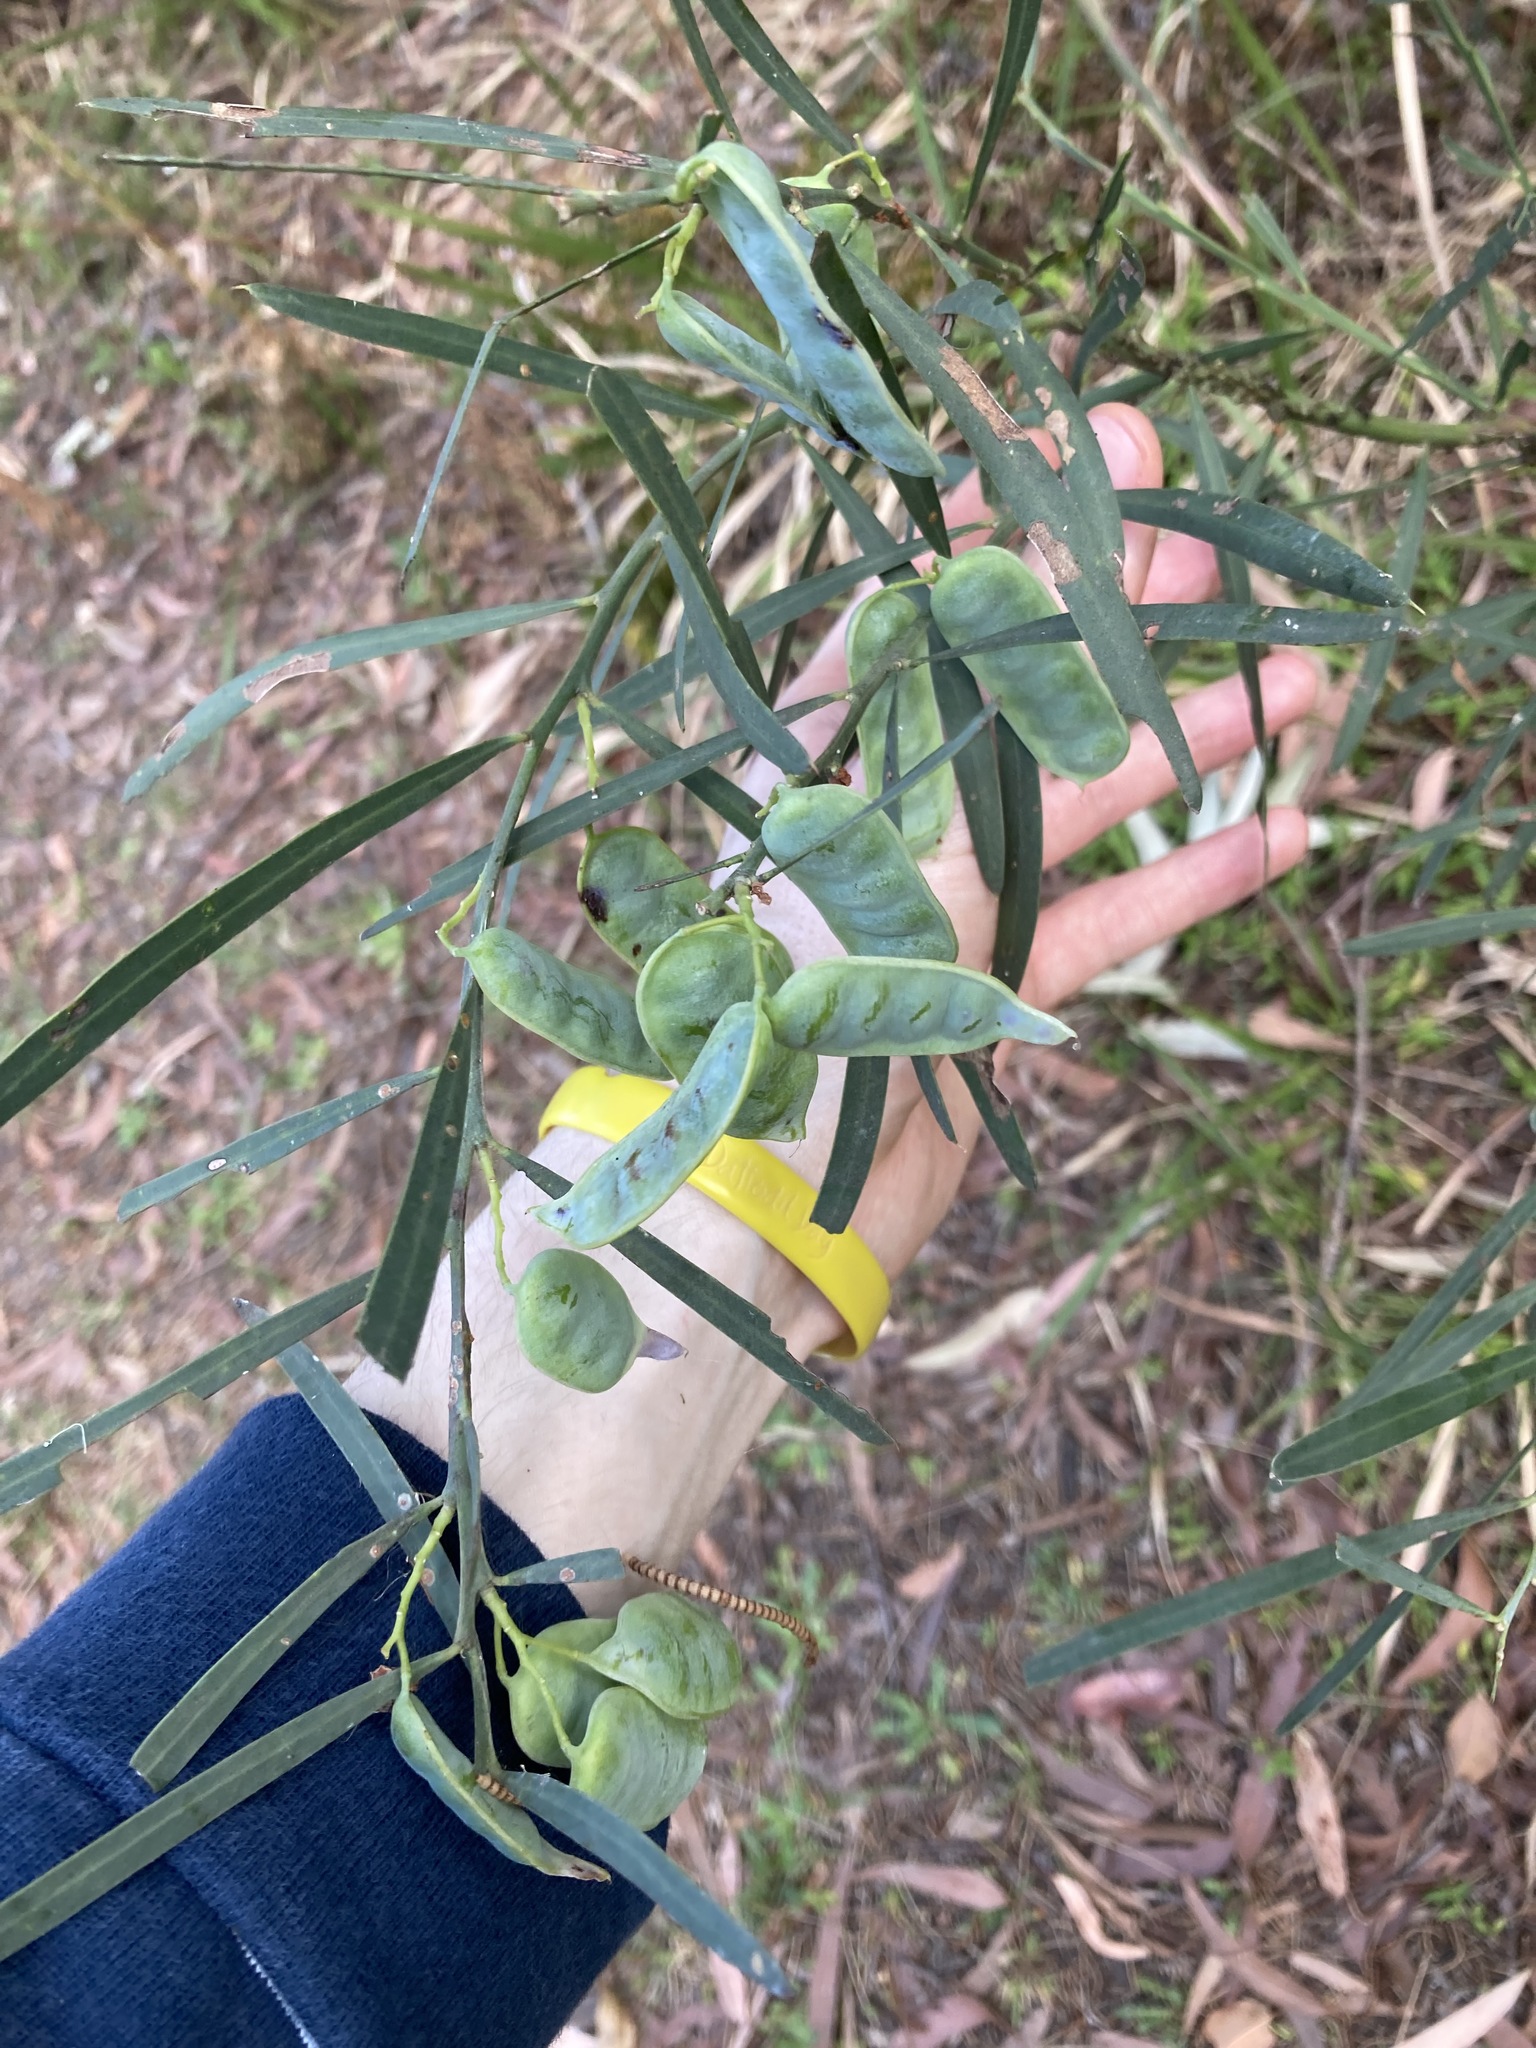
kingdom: Plantae
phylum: Tracheophyta
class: Magnoliopsida
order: Fabales
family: Fabaceae
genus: Acacia
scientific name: Acacia suaveolens
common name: Sweet acacia
